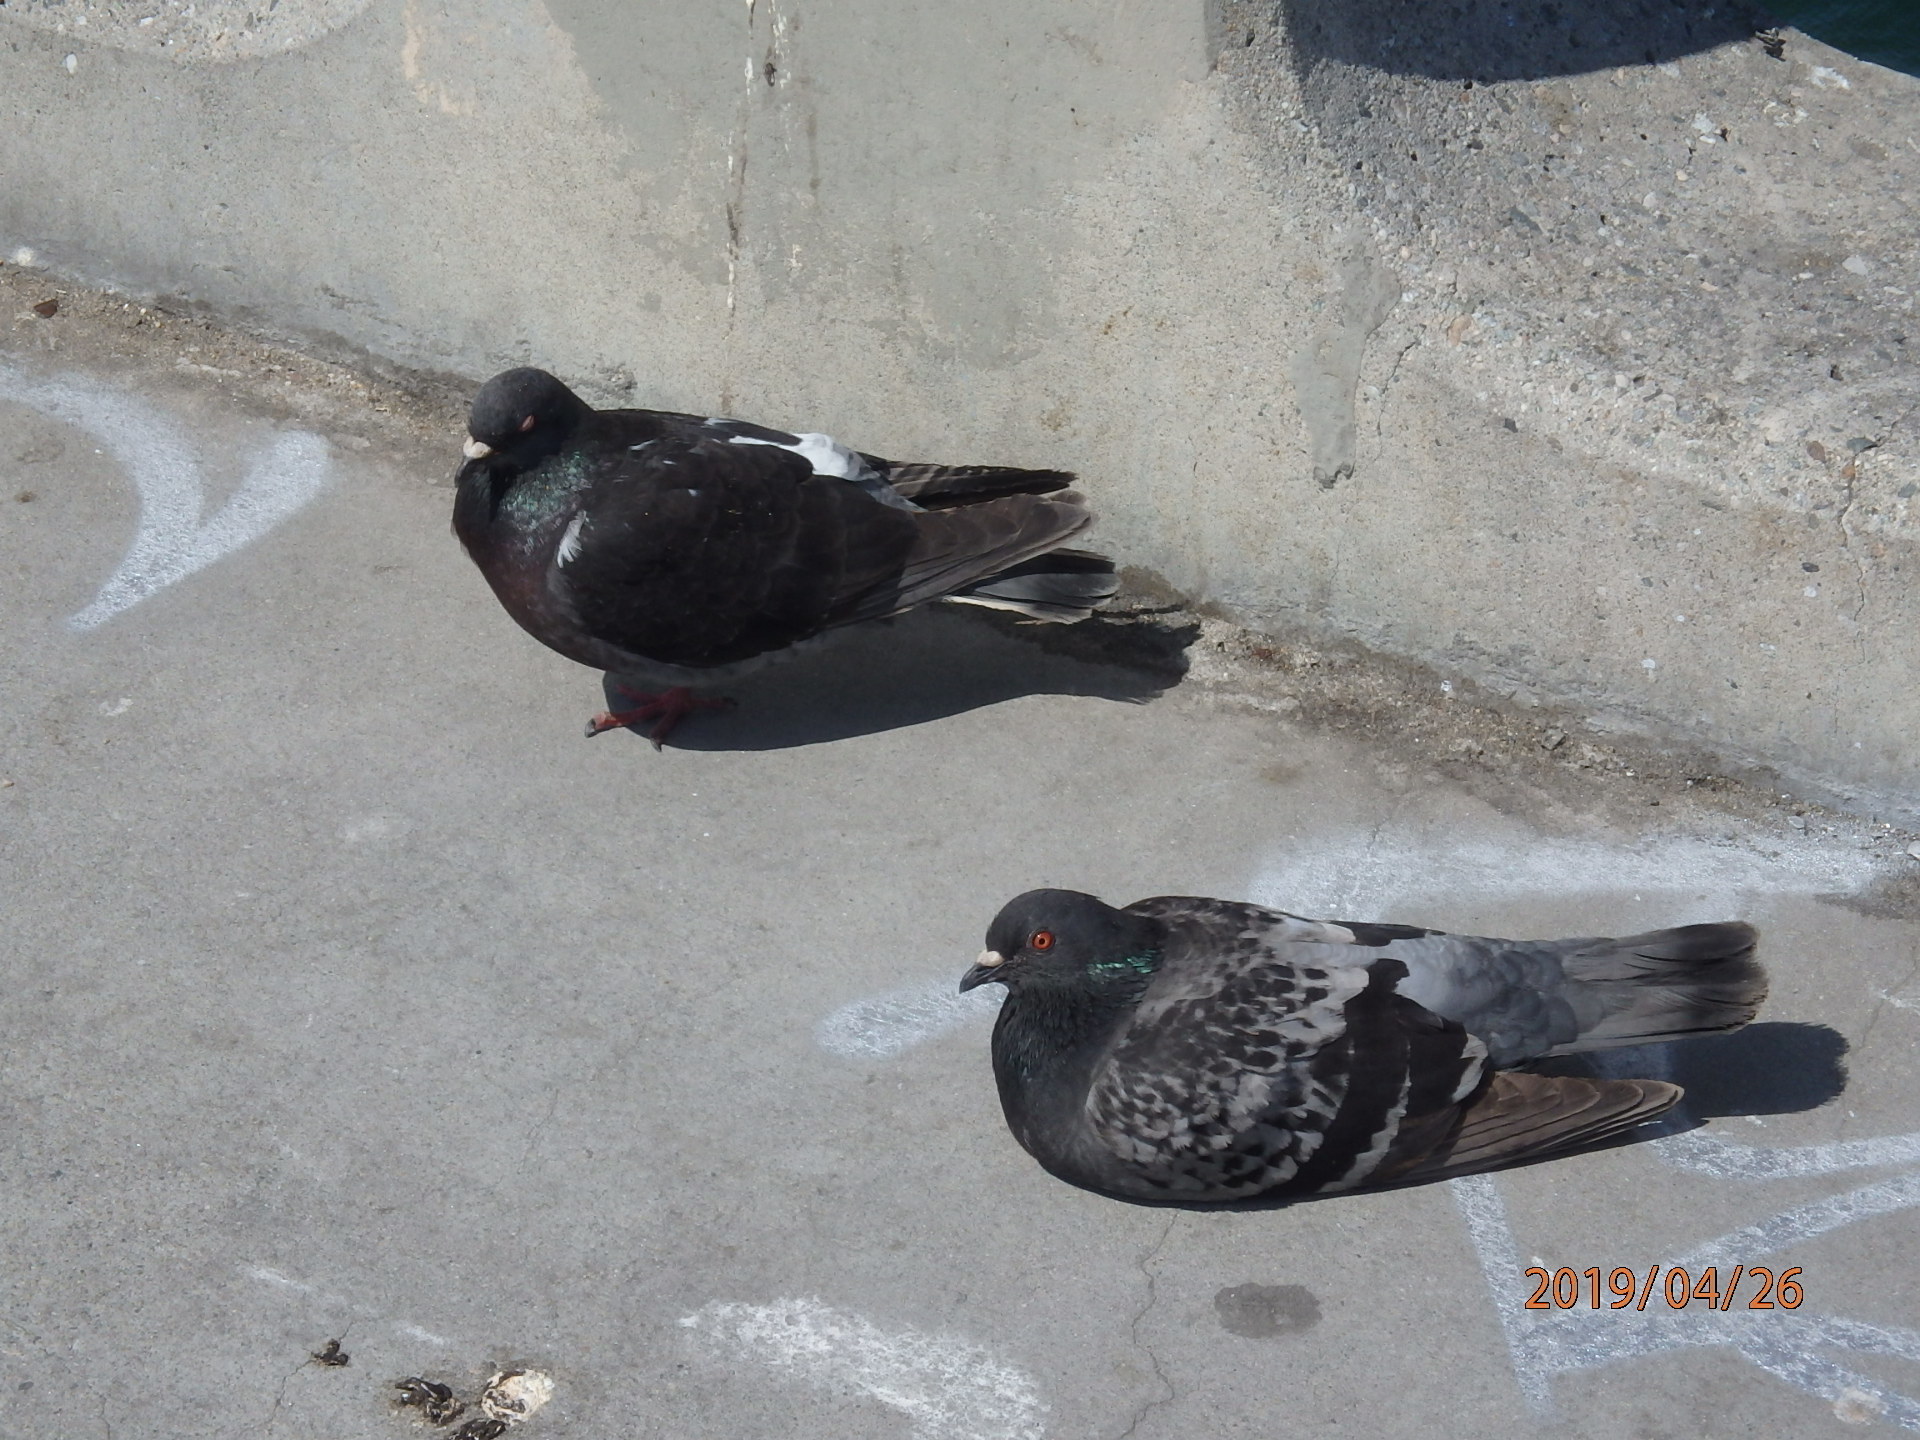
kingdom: Animalia
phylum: Chordata
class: Aves
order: Columbiformes
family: Columbidae
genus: Columba
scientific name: Columba livia
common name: Rock pigeon
